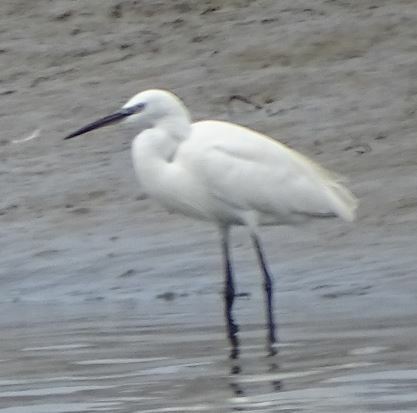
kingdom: Animalia
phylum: Chordata
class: Aves
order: Pelecaniformes
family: Ardeidae
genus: Egretta
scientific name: Egretta garzetta
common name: Little egret
